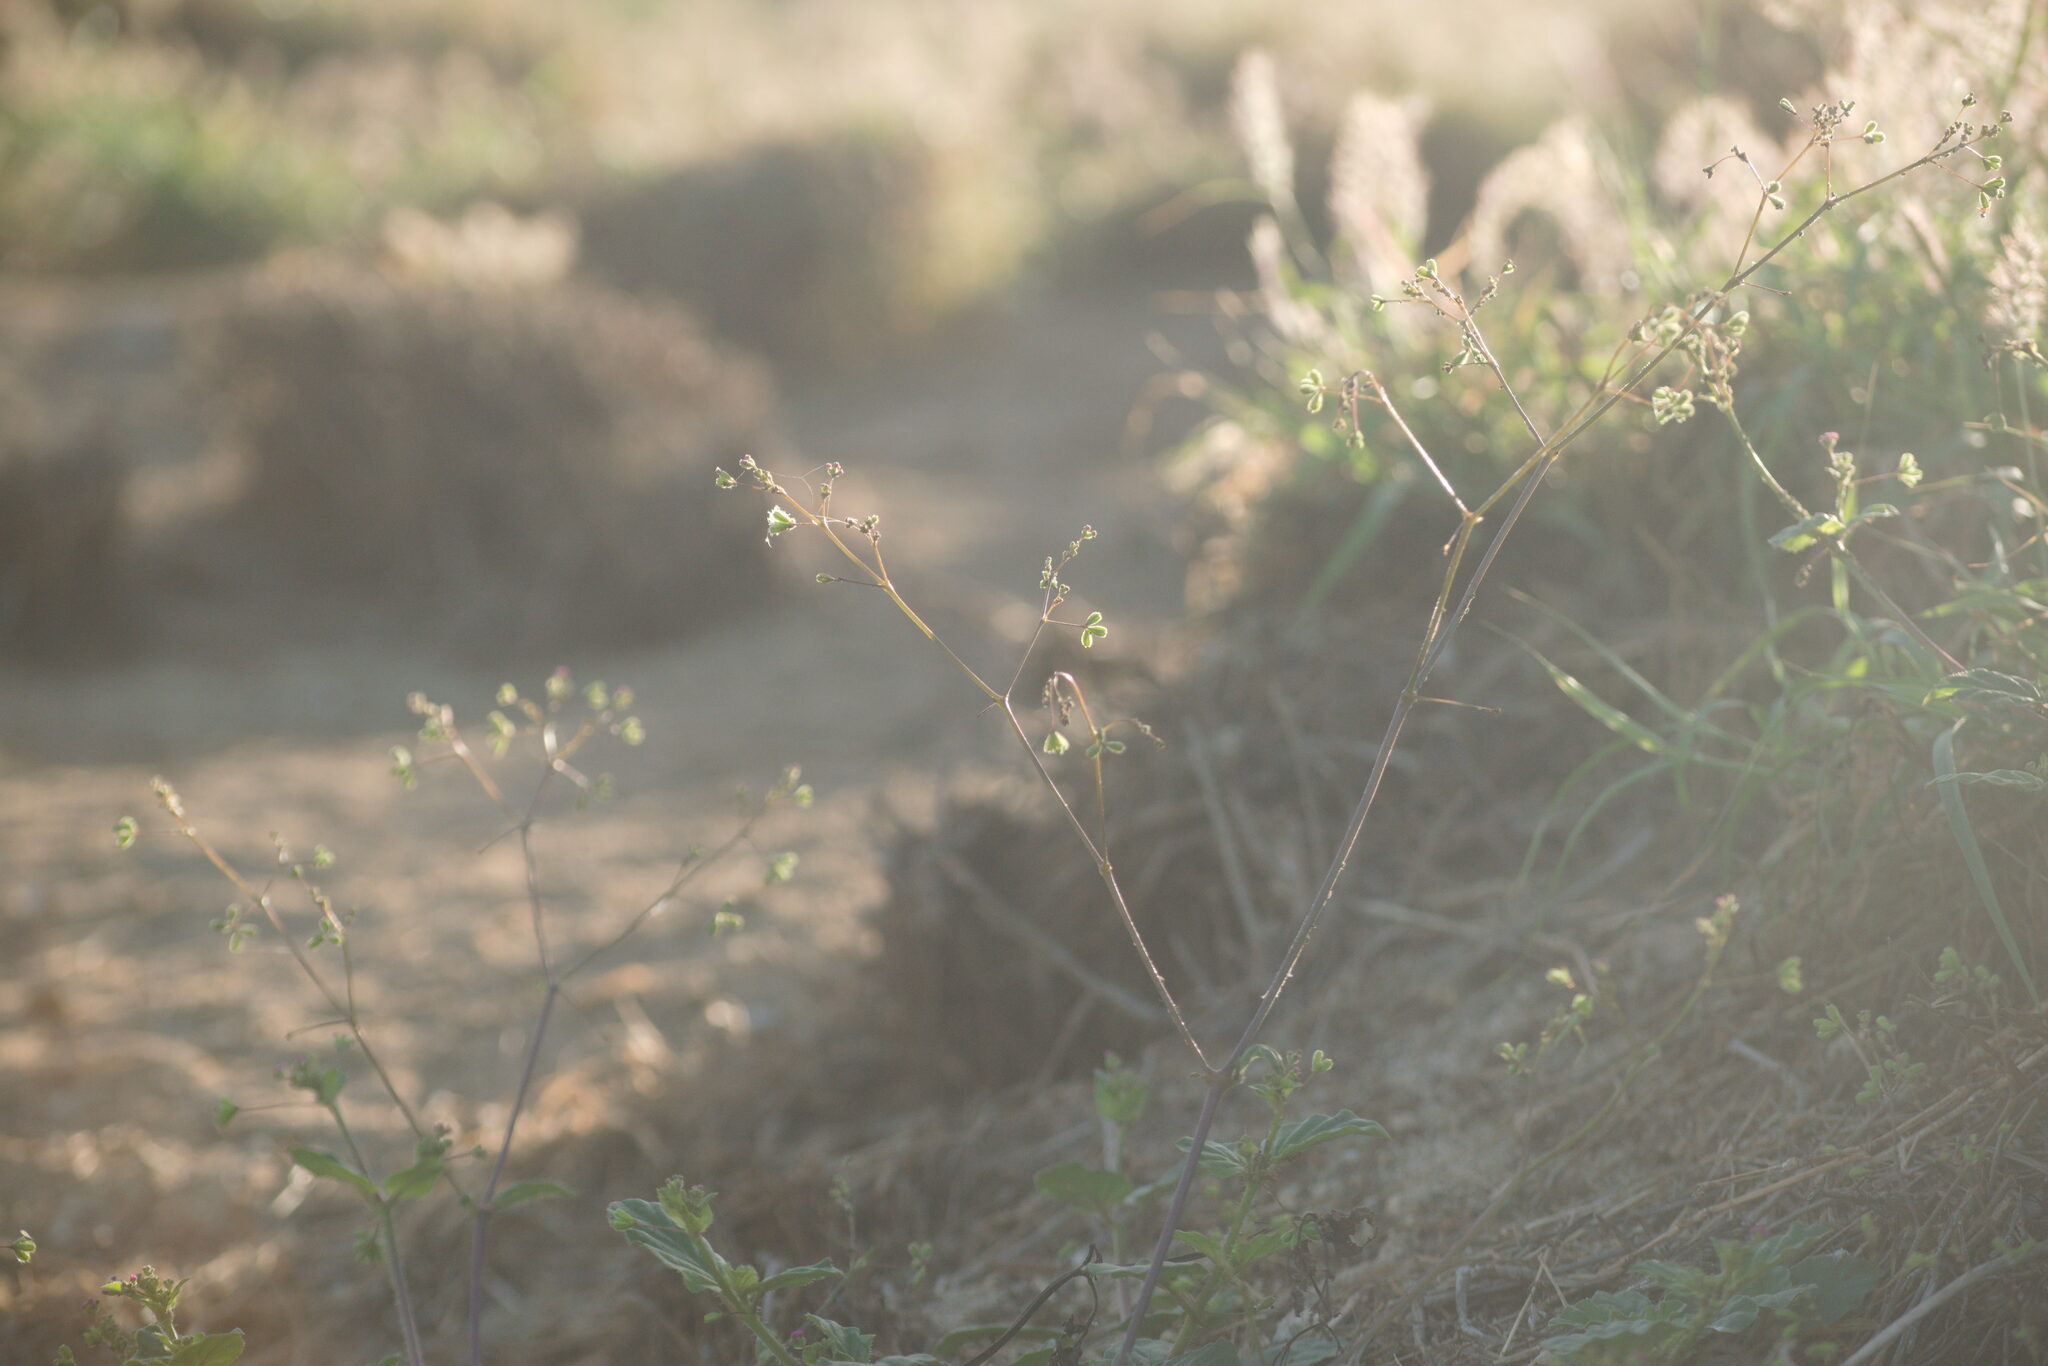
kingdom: Plantae
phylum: Tracheophyta
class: Magnoliopsida
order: Caryophyllales
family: Nyctaginaceae
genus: Boerhavia
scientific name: Boerhavia diffusa
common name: Red spiderling
